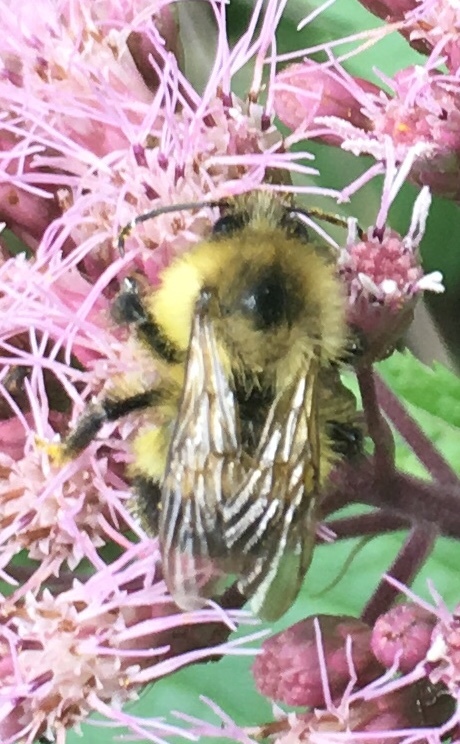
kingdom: Animalia
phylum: Arthropoda
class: Insecta
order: Hymenoptera
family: Apidae
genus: Bombus
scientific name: Bombus vagans
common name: Half-black bumble bee
